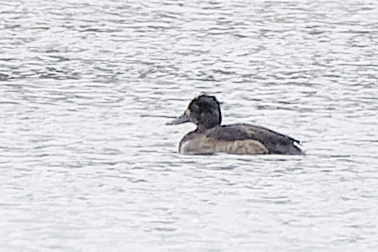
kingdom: Animalia
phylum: Chordata
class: Aves
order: Anseriformes
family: Anatidae
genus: Aythya
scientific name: Aythya fuligula
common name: Tufted duck
